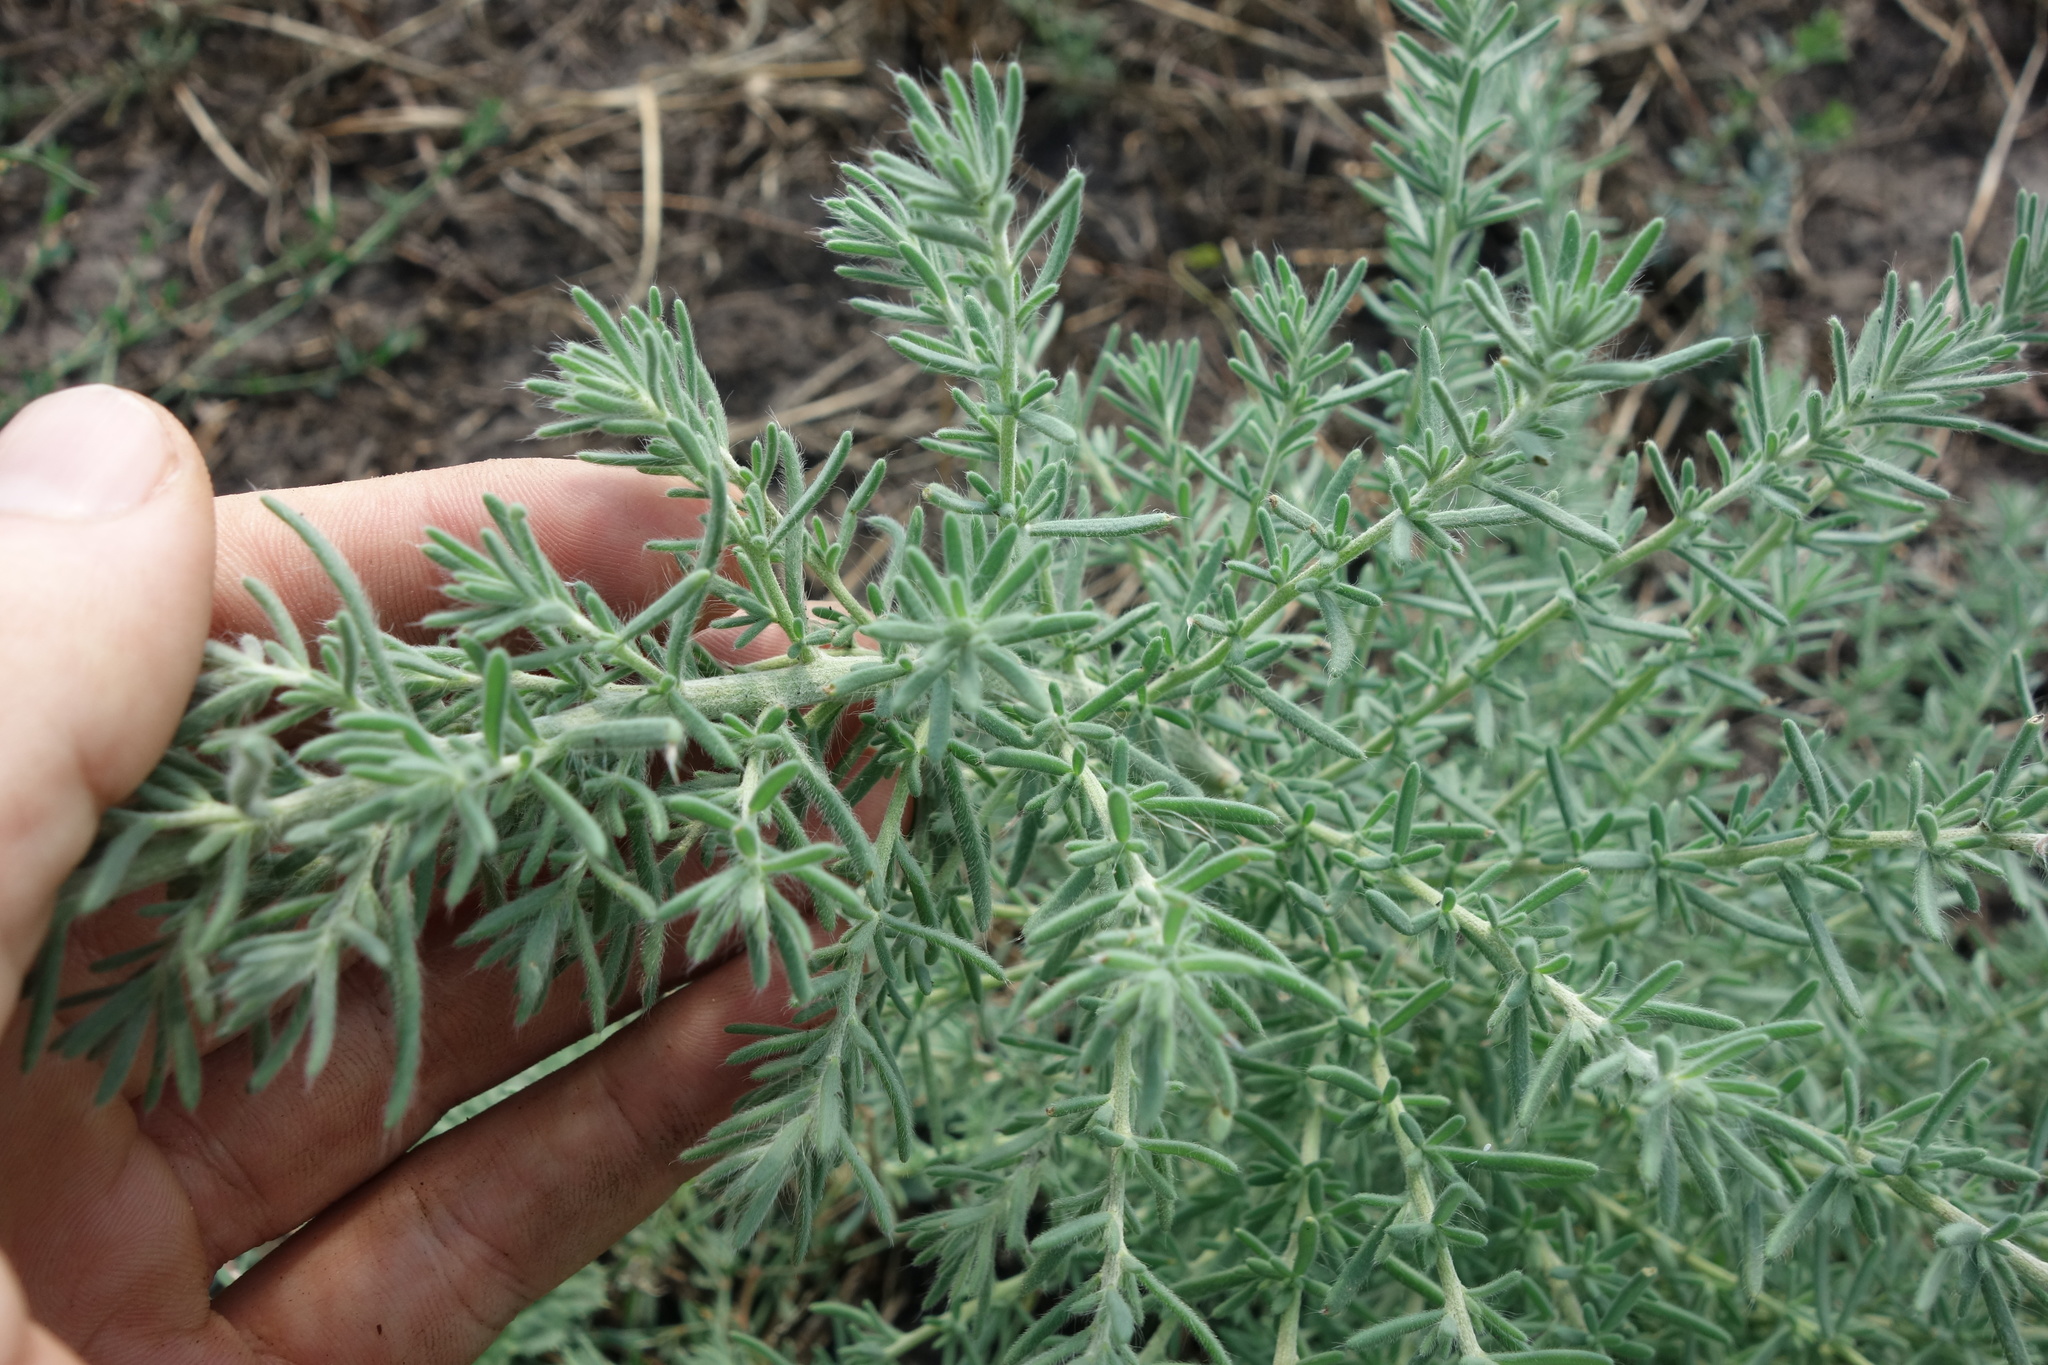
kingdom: Plantae
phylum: Tracheophyta
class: Magnoliopsida
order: Caryophyllales
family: Amaranthaceae
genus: Sedobassia
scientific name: Sedobassia sedoides
